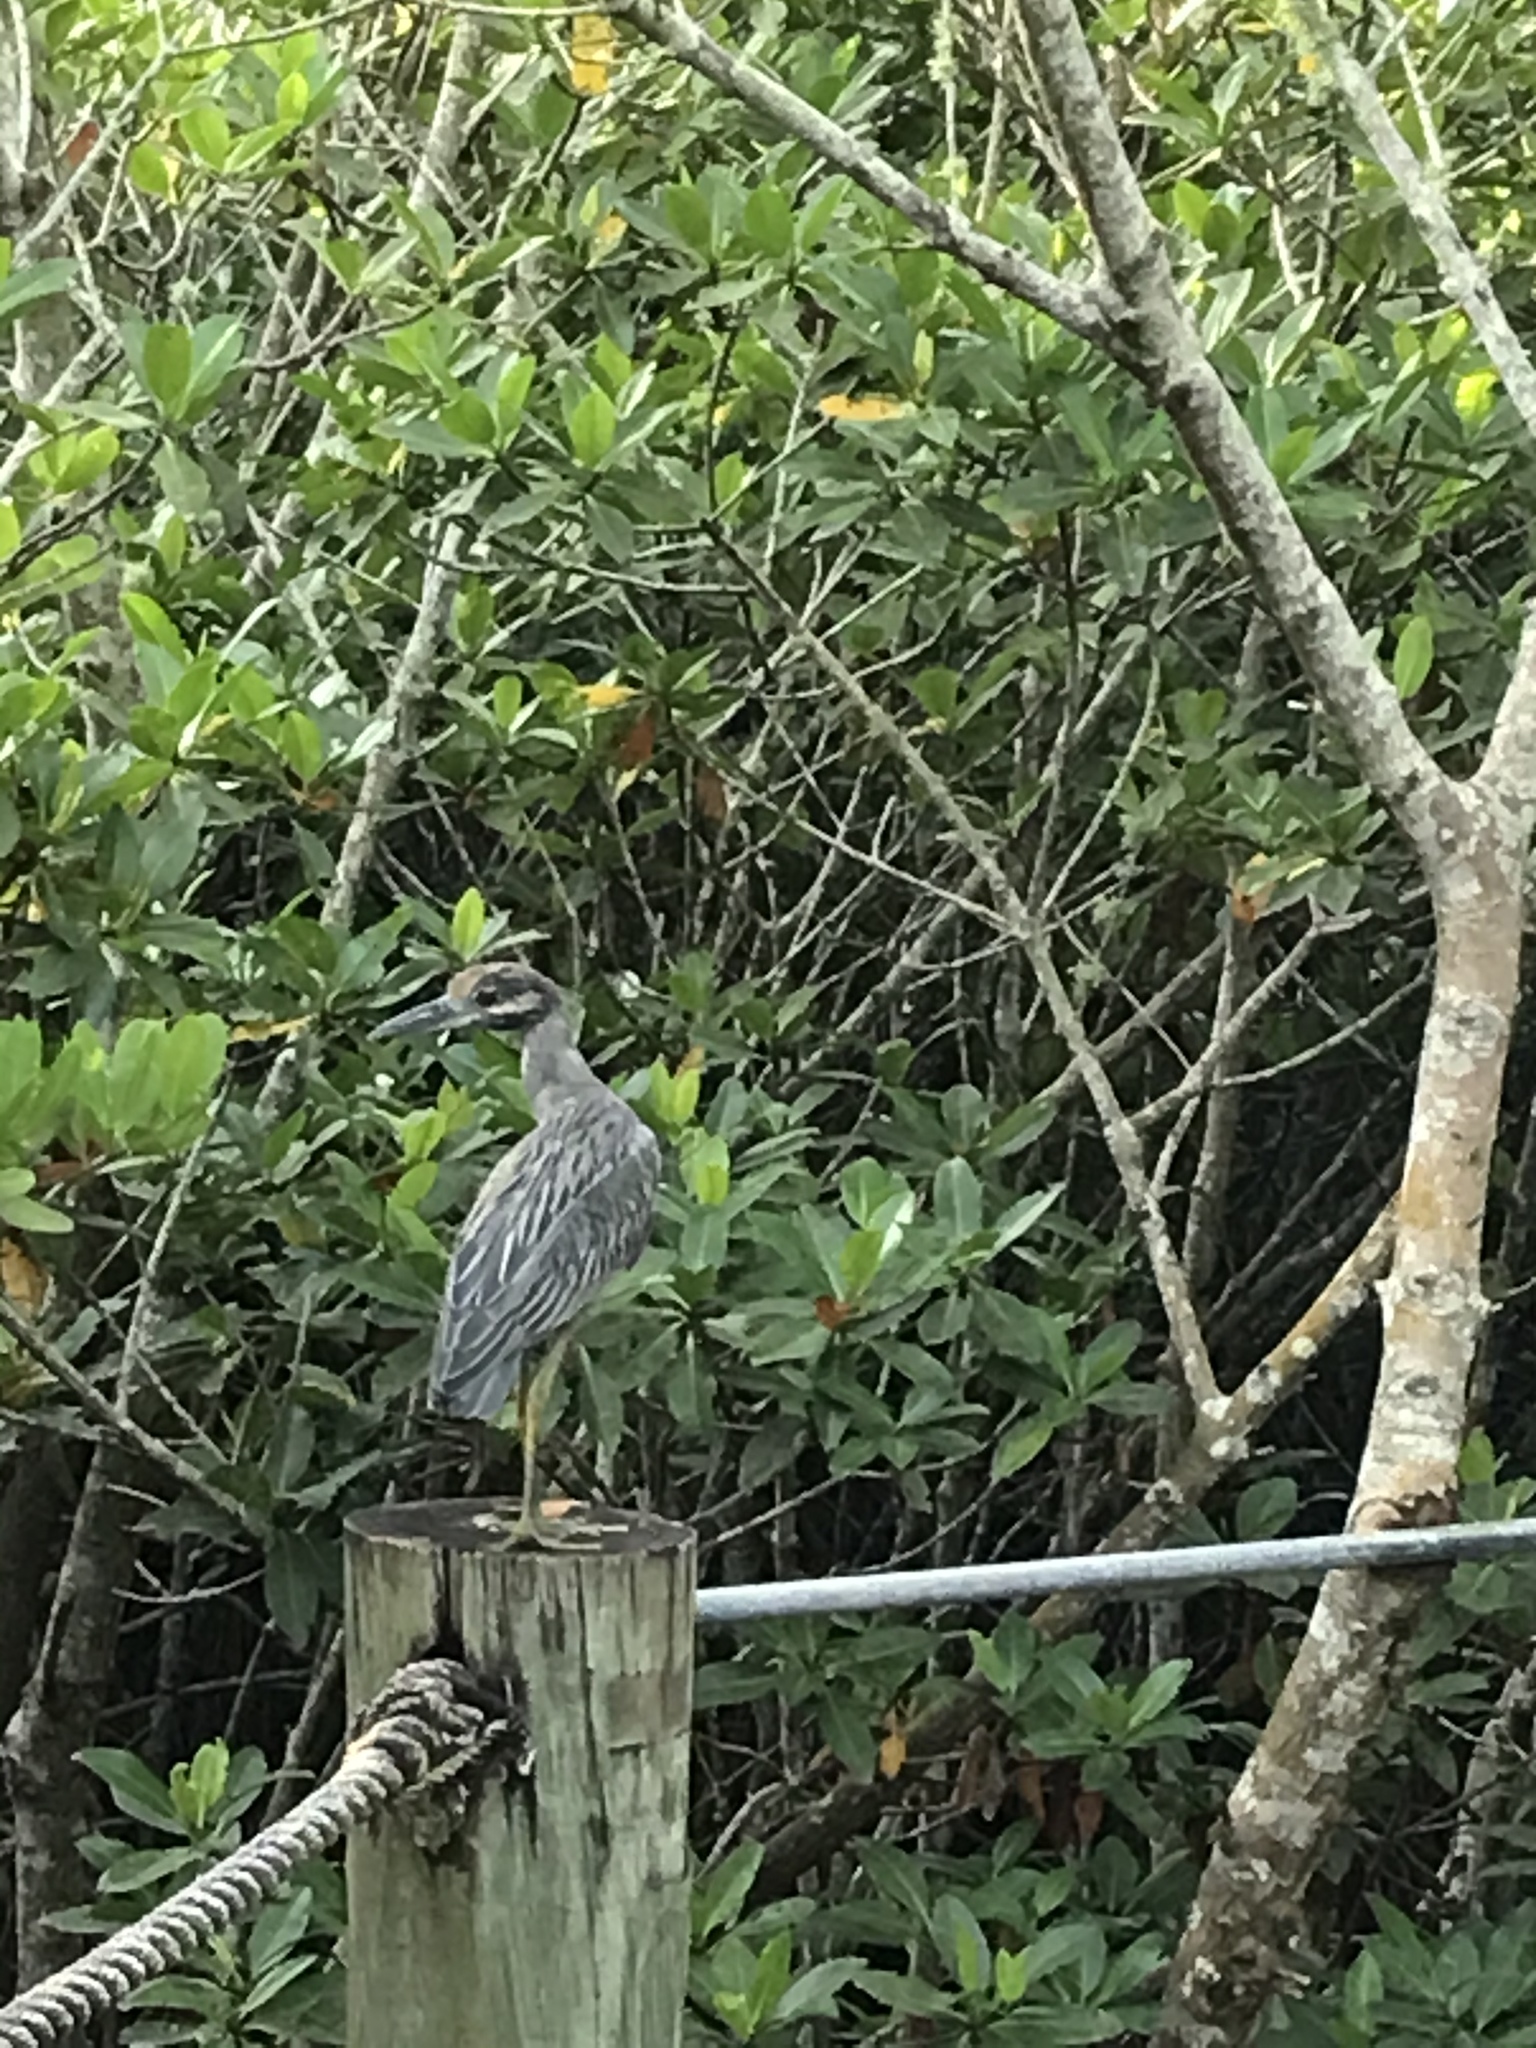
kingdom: Animalia
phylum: Chordata
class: Aves
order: Pelecaniformes
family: Ardeidae
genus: Nyctanassa
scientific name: Nyctanassa violacea
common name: Yellow-crowned night heron
